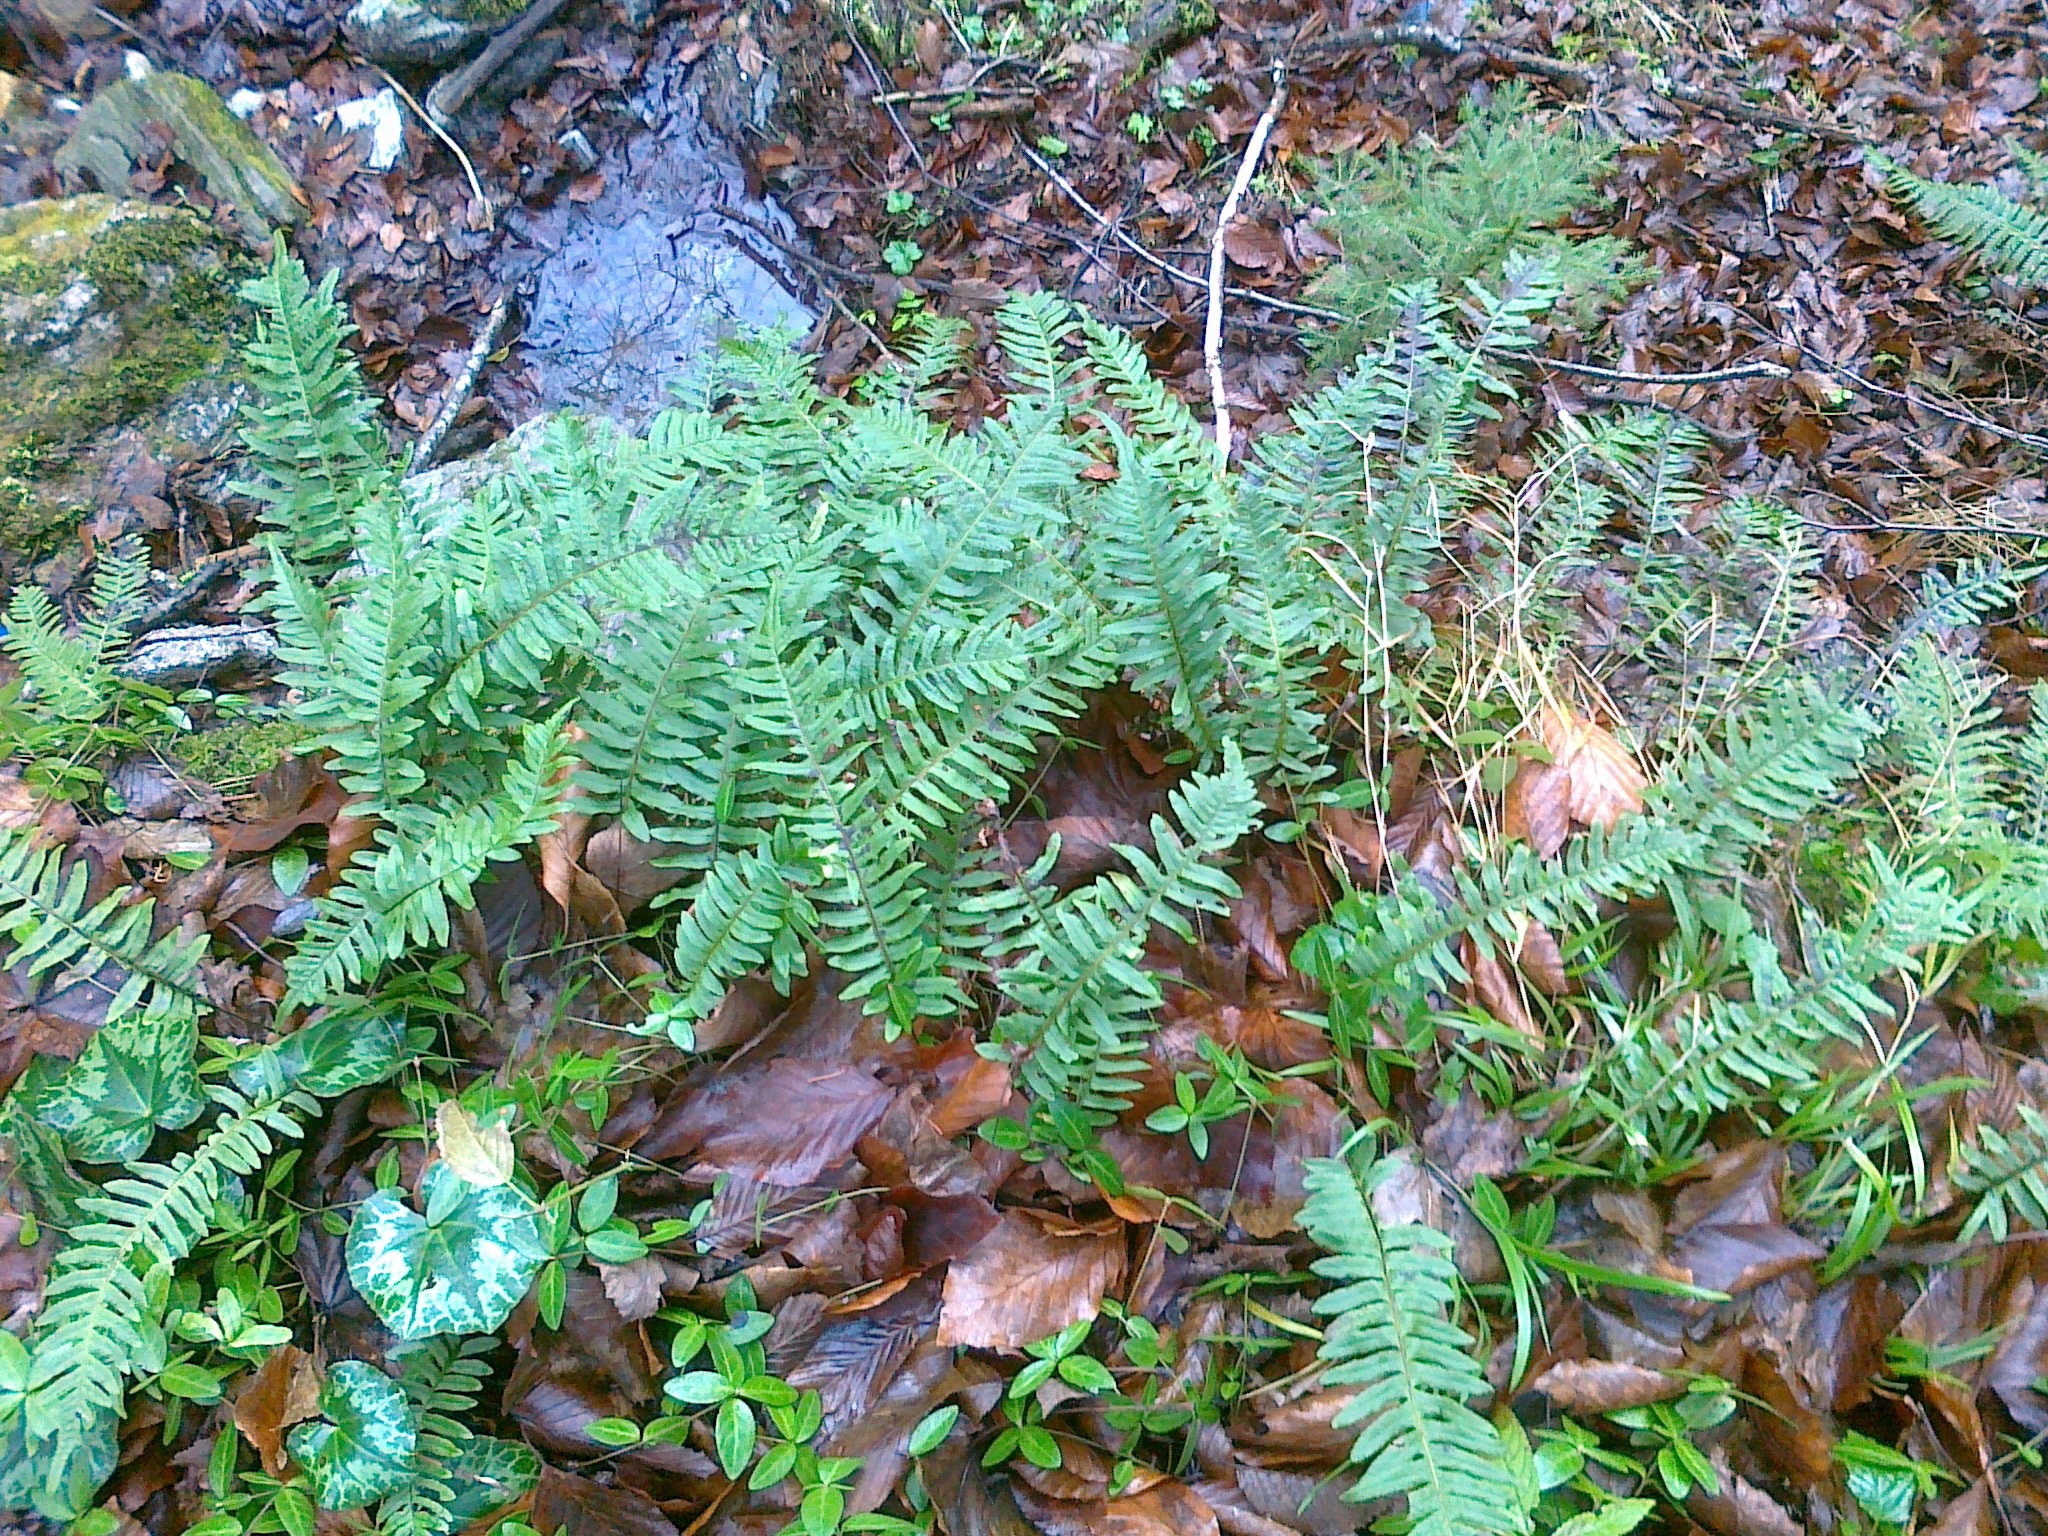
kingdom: Plantae
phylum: Tracheophyta
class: Polypodiopsida
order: Polypodiales
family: Polypodiaceae
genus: Polypodium
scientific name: Polypodium vulgare
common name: Common polypody
